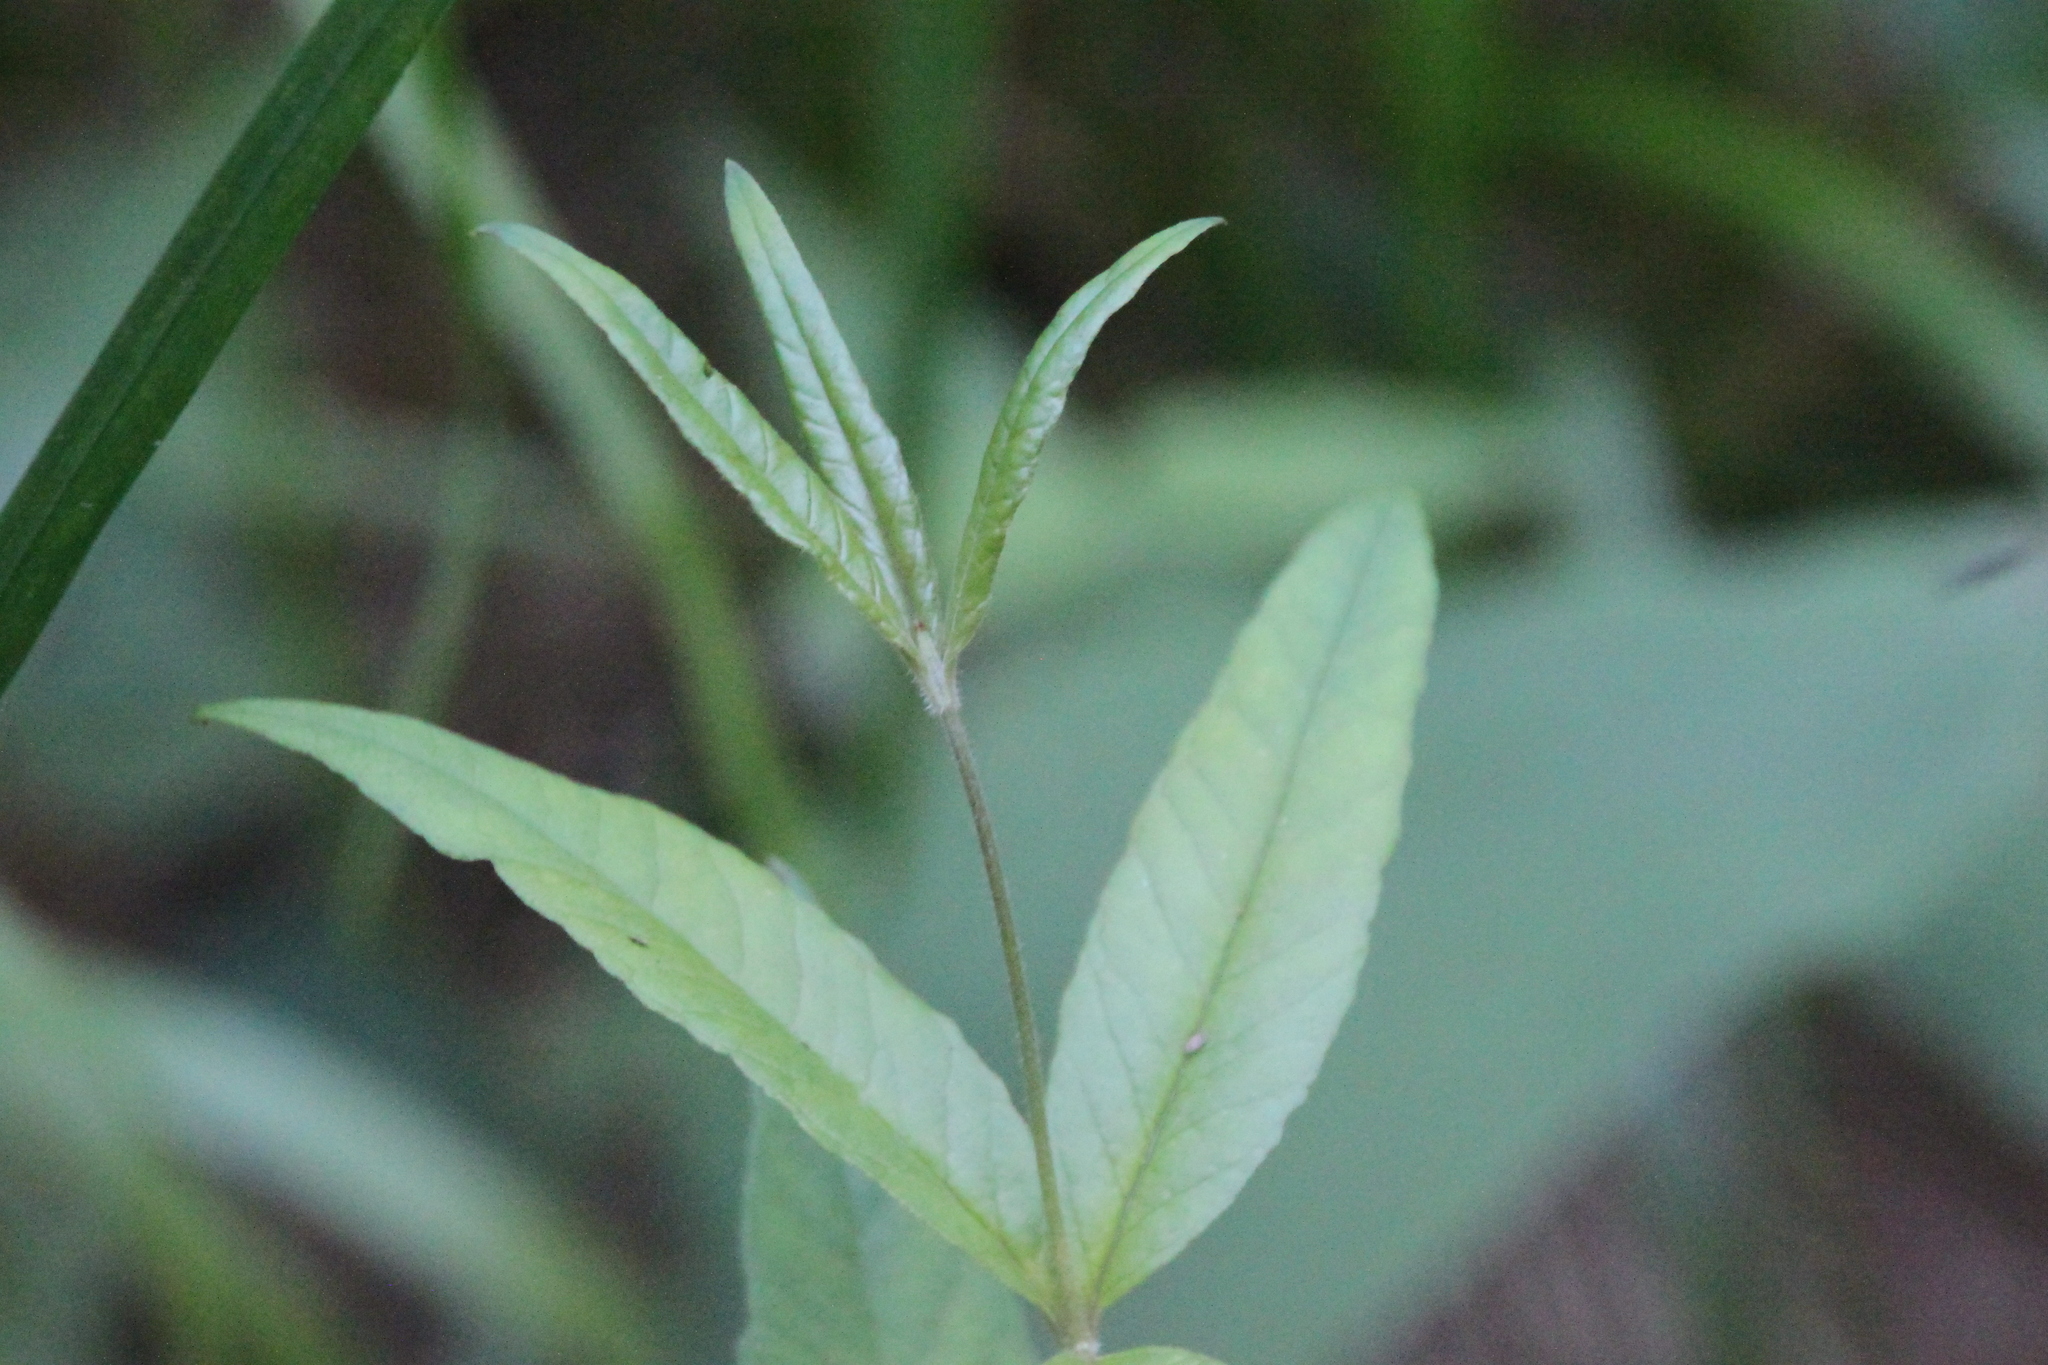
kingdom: Plantae
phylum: Tracheophyta
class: Magnoliopsida
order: Ericales
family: Primulaceae
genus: Lysimachia
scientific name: Lysimachia vulgaris
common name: Yellow loosestrife
